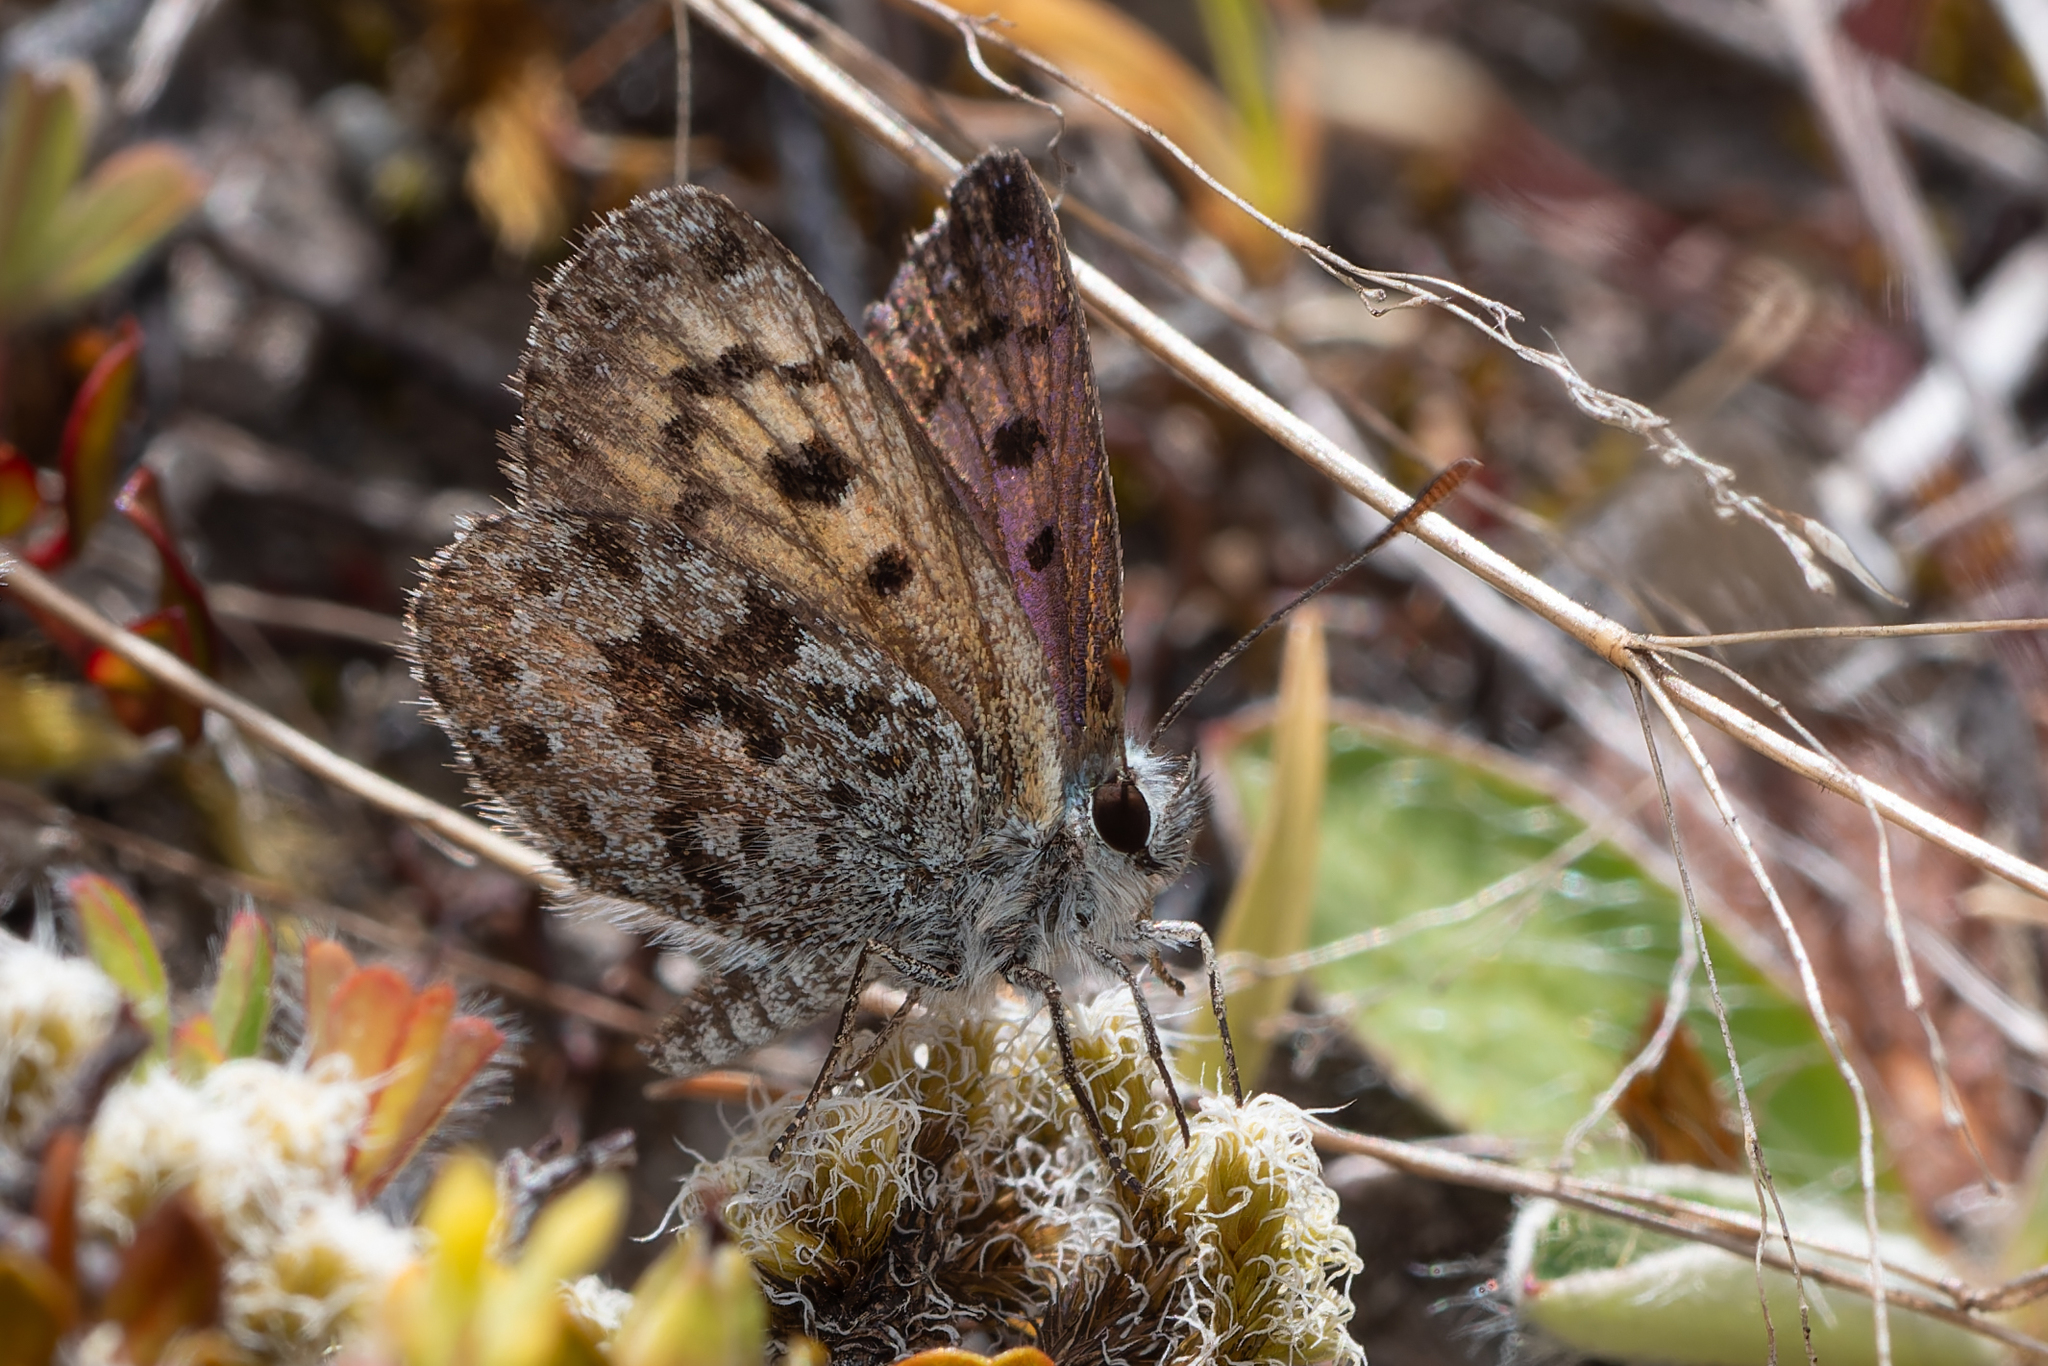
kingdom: Animalia
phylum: Arthropoda
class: Insecta
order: Lepidoptera
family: Lycaenidae
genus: Lycaena
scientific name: Lycaena tama
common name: Canterbury alpine boulder copper
